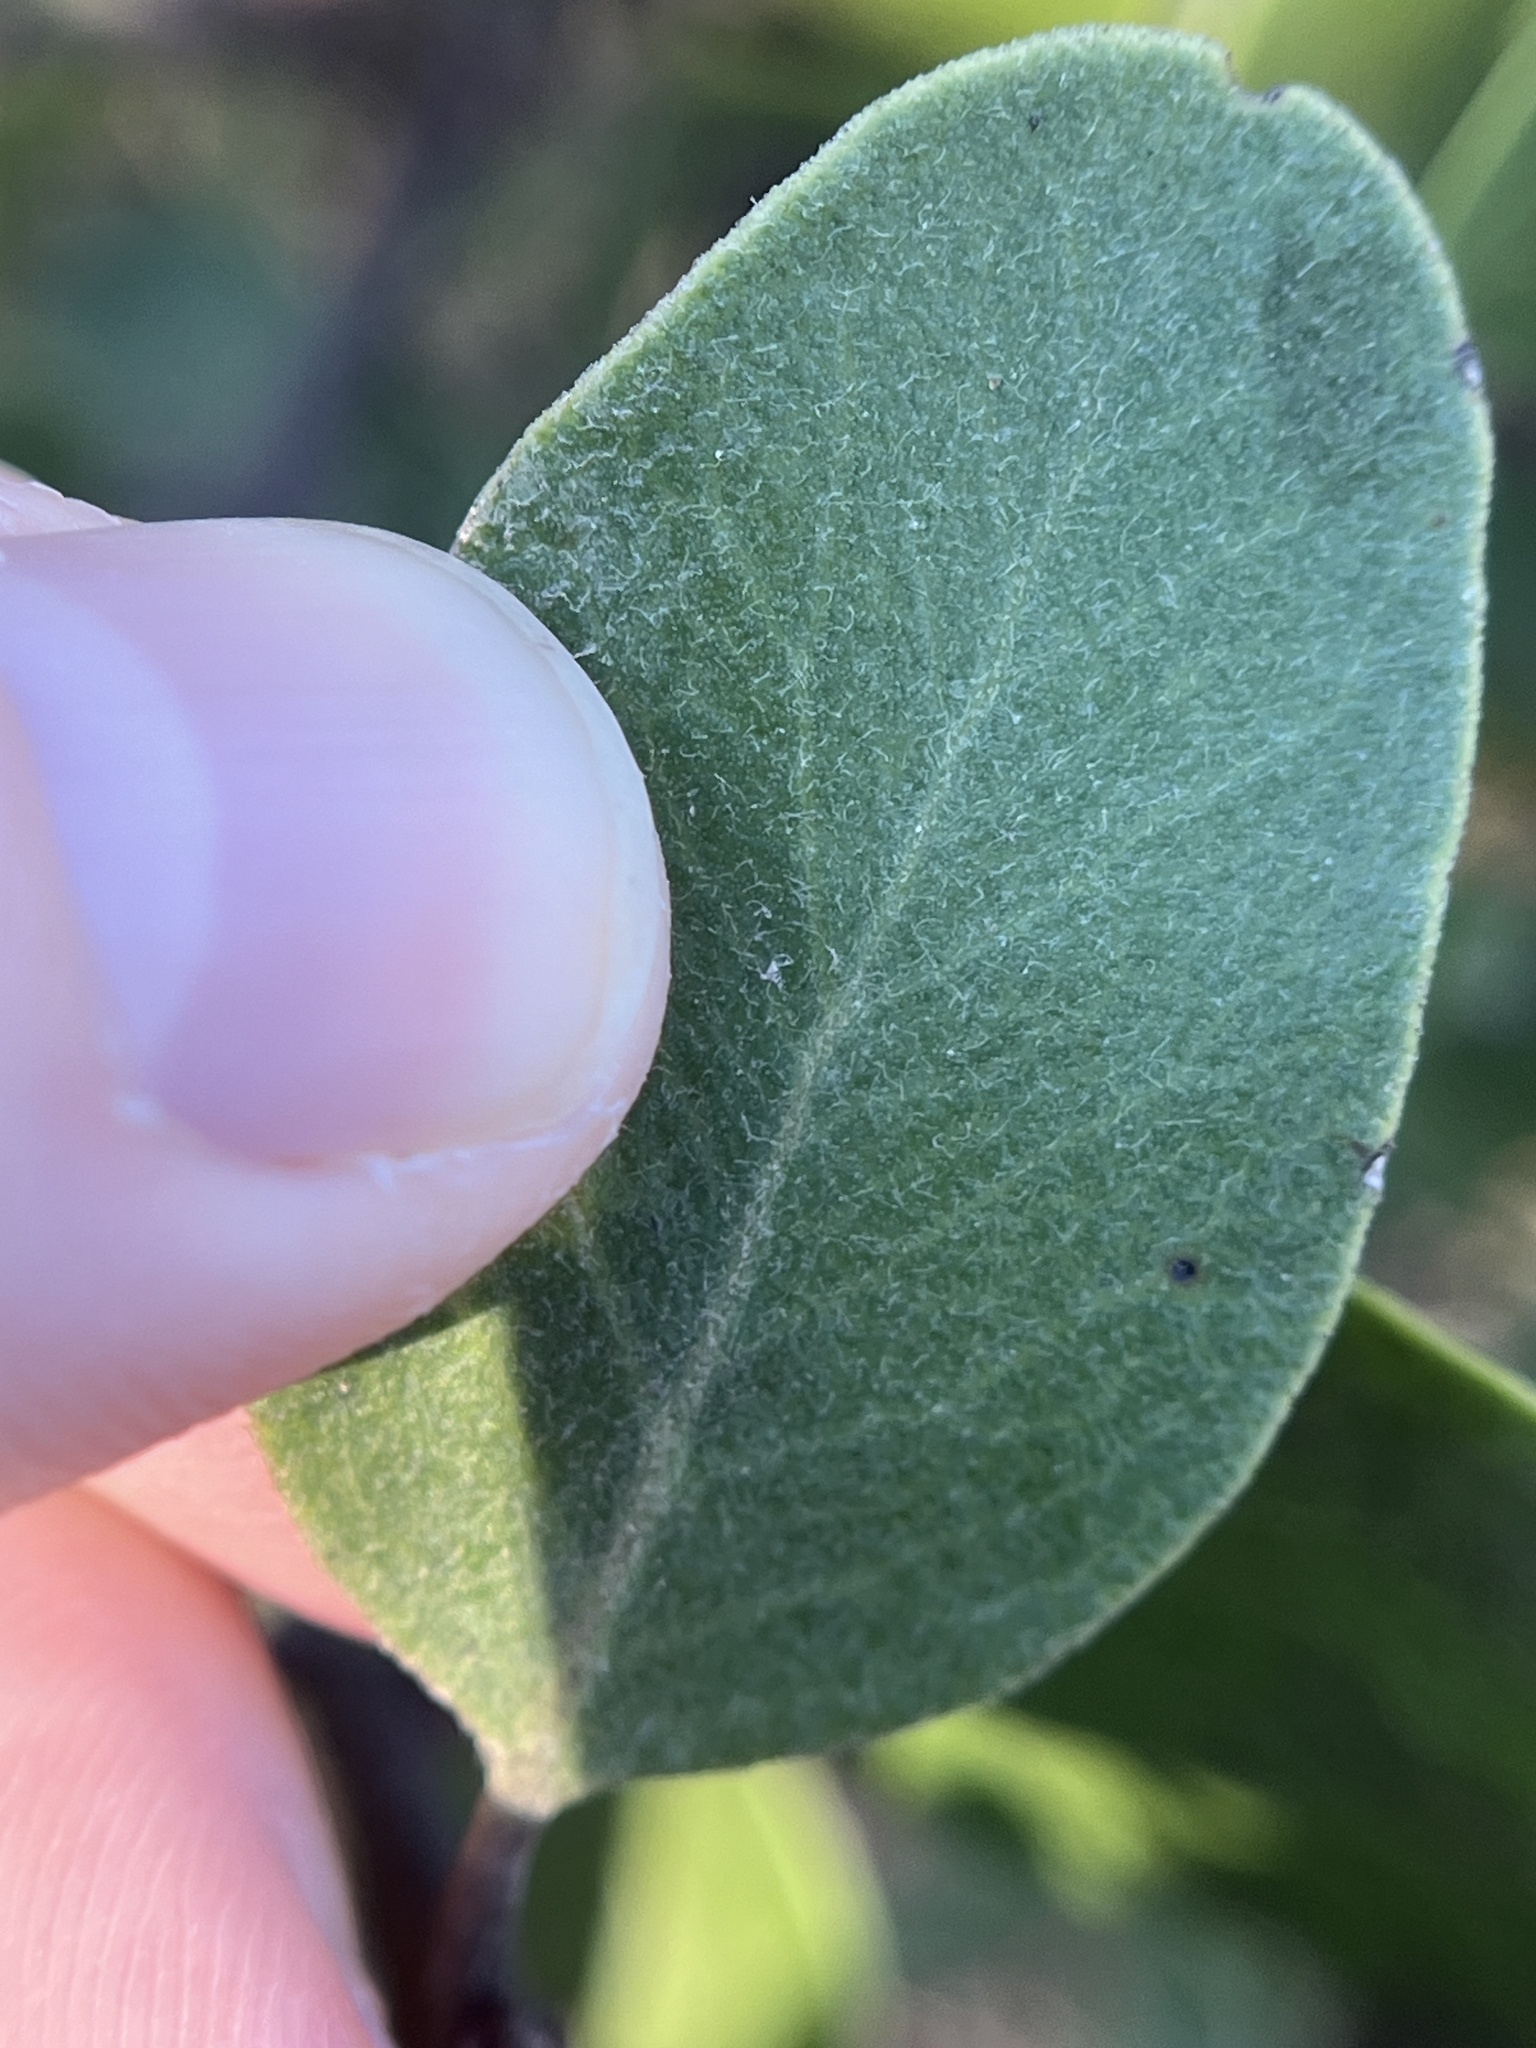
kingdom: Plantae
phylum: Tracheophyta
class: Magnoliopsida
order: Ericales
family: Ericaceae
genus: Arctostaphylos
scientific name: Arctostaphylos rudis
